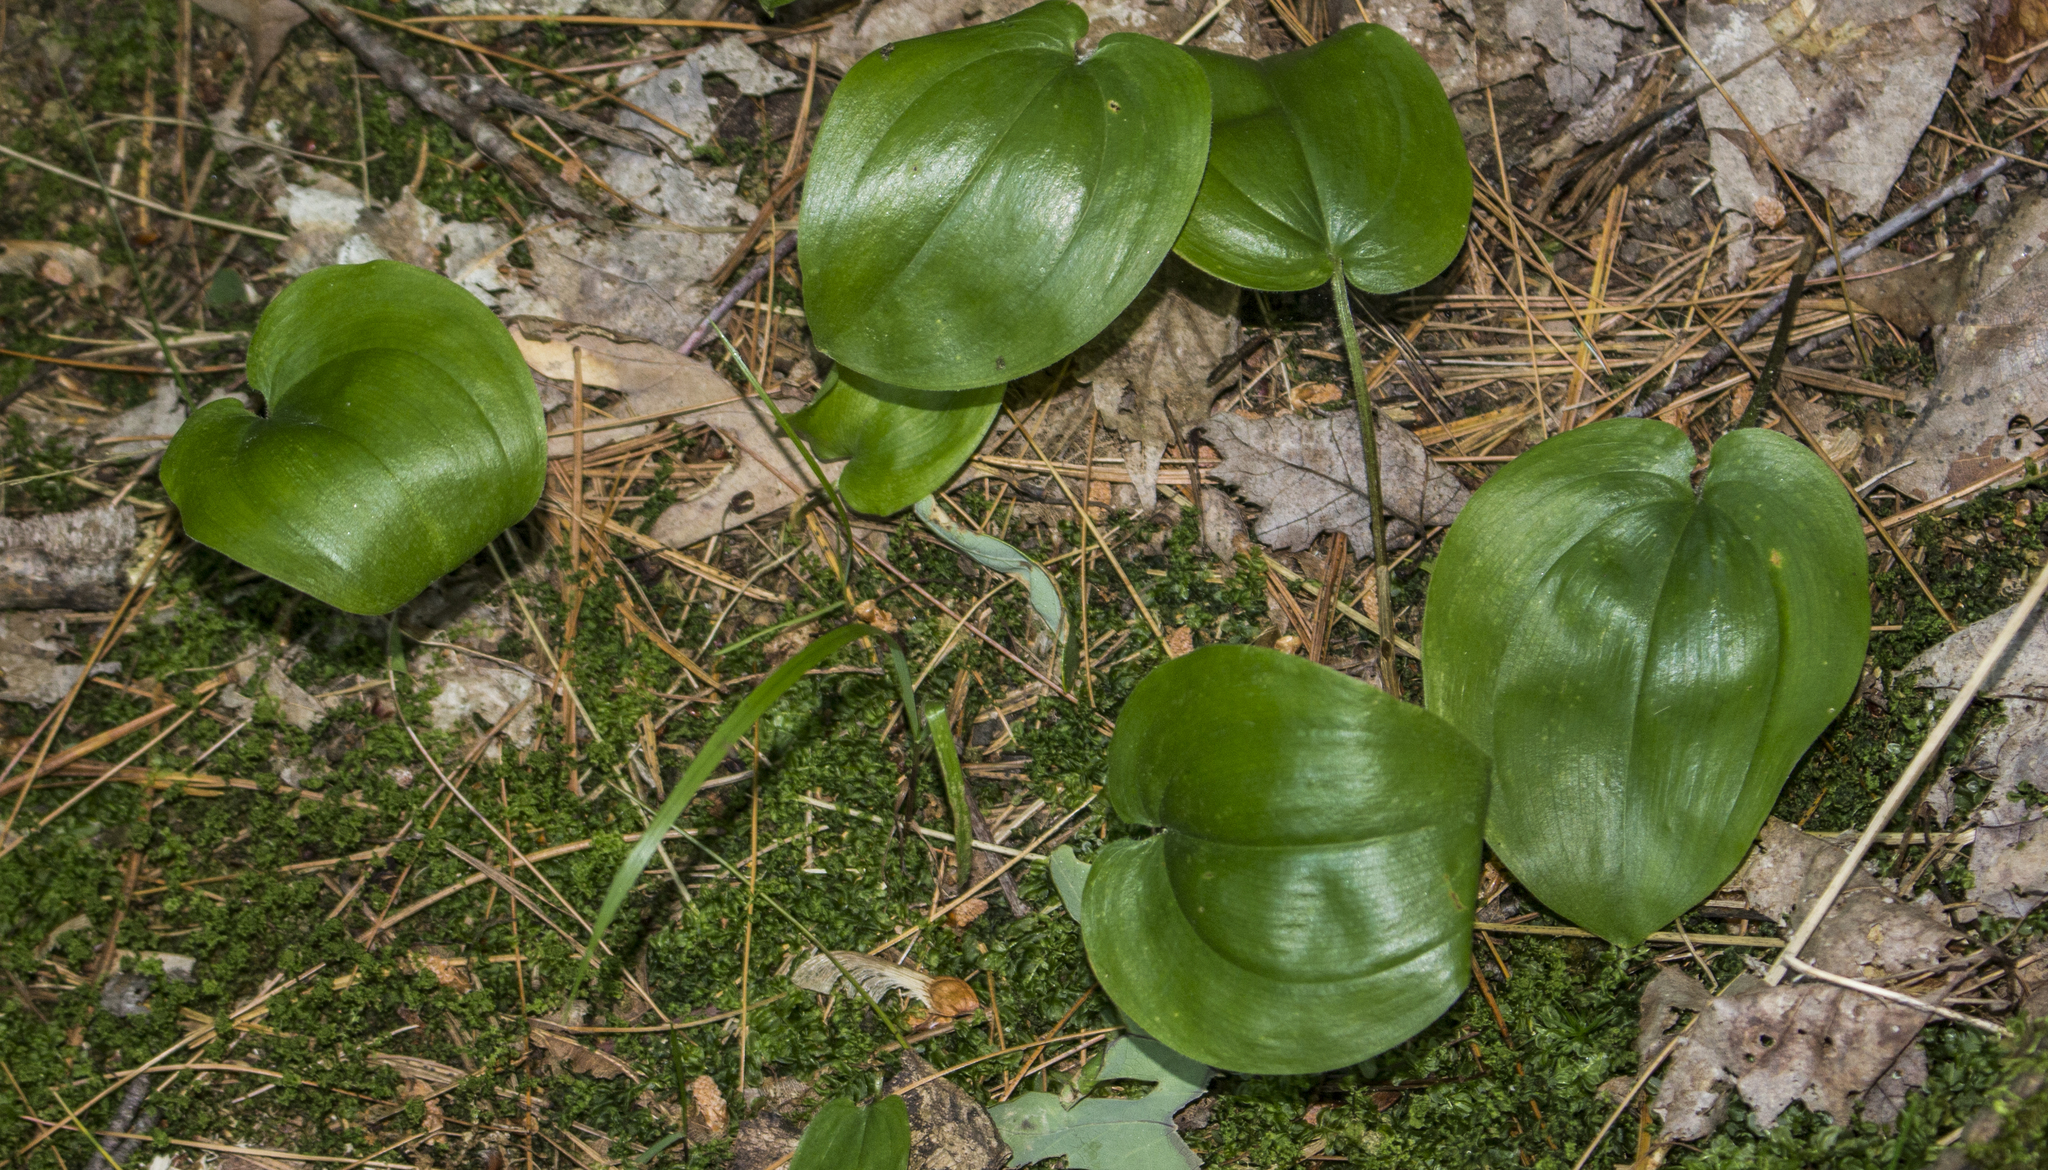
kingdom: Plantae
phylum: Tracheophyta
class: Liliopsida
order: Asparagales
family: Asparagaceae
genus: Maianthemum
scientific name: Maianthemum canadense
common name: False lily-of-the-valley
